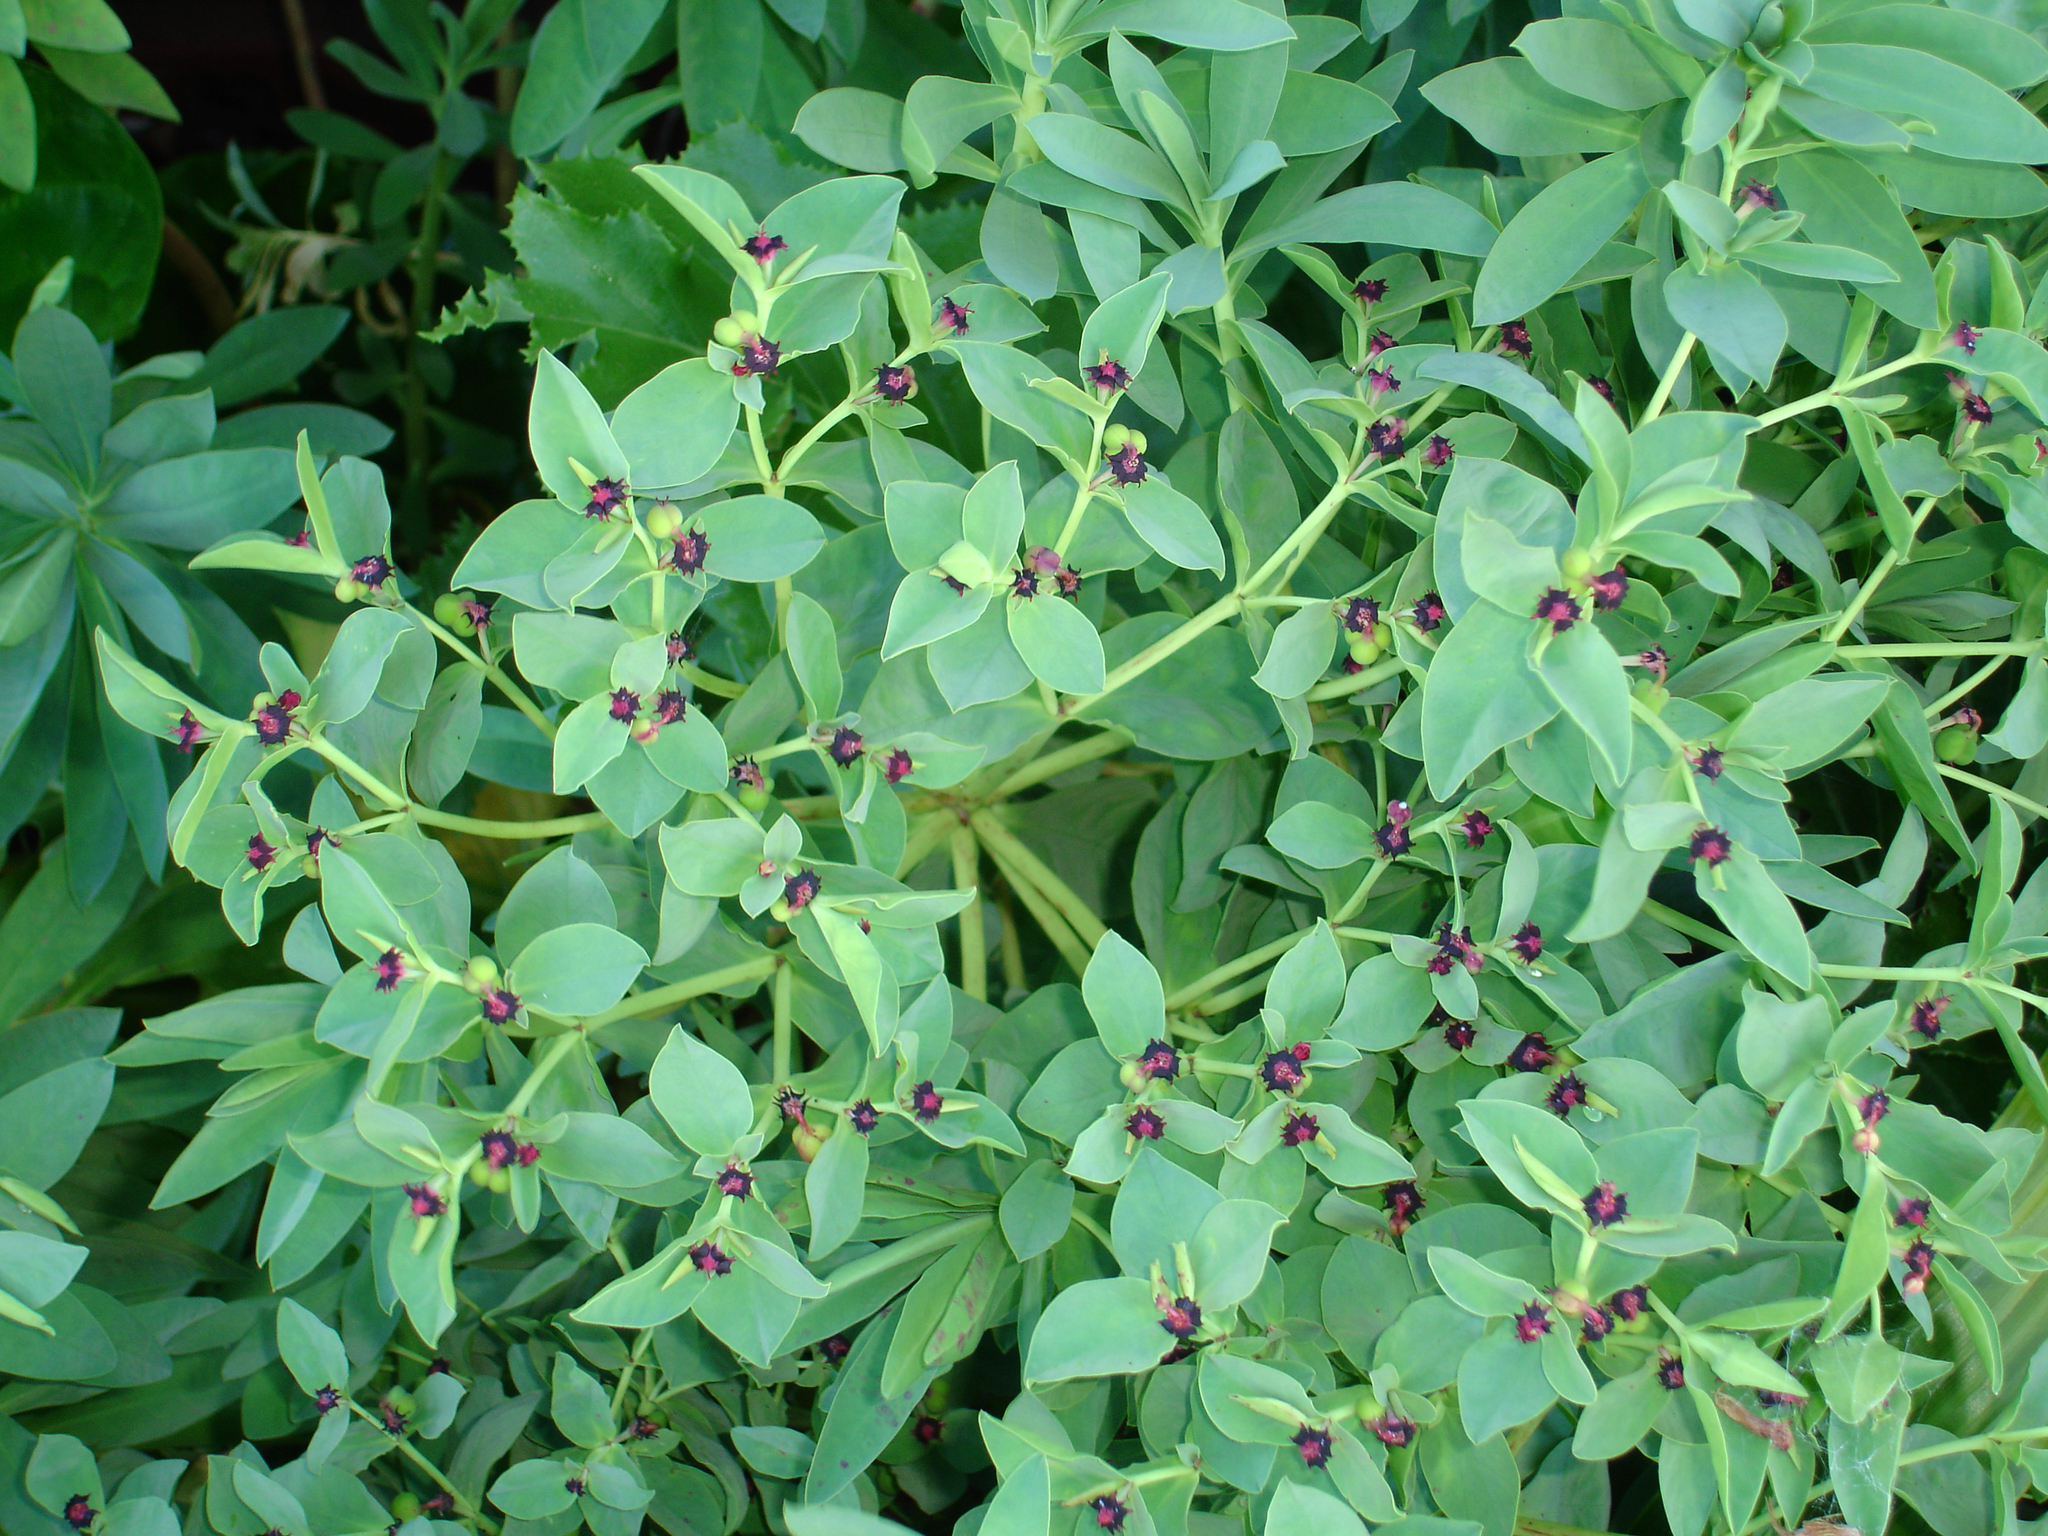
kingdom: Plantae
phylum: Tracheophyta
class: Magnoliopsida
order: Malpighiales
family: Euphorbiaceae
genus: Euphorbia
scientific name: Euphorbia glauca
